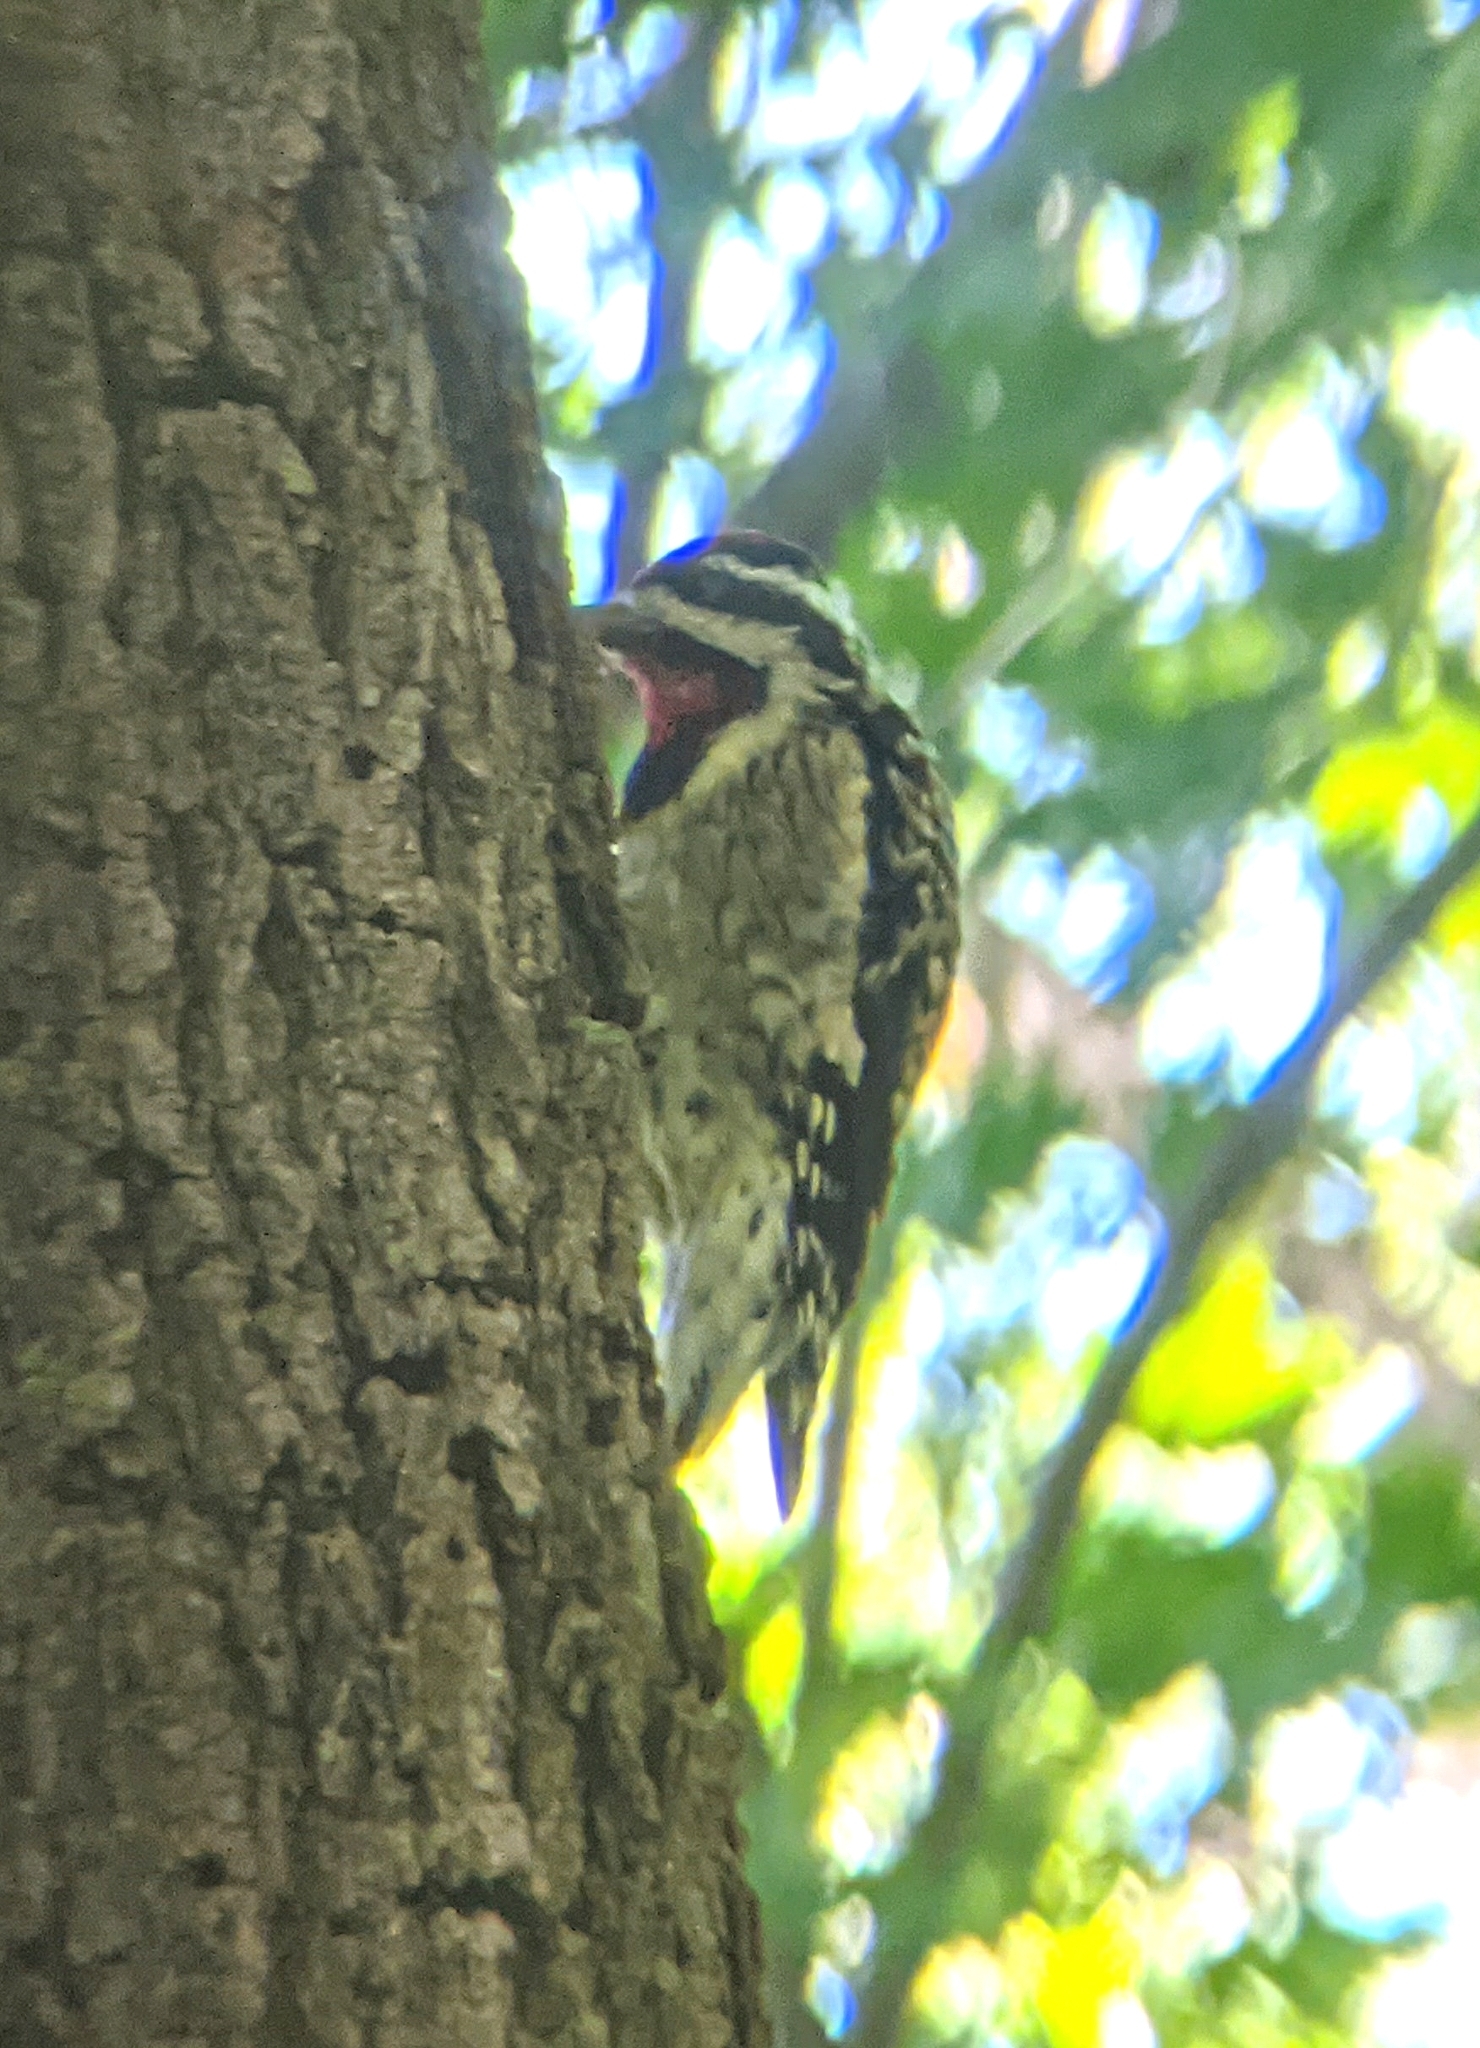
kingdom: Animalia
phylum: Chordata
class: Aves
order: Piciformes
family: Picidae
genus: Sphyrapicus
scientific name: Sphyrapicus varius
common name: Yellow-bellied sapsucker
